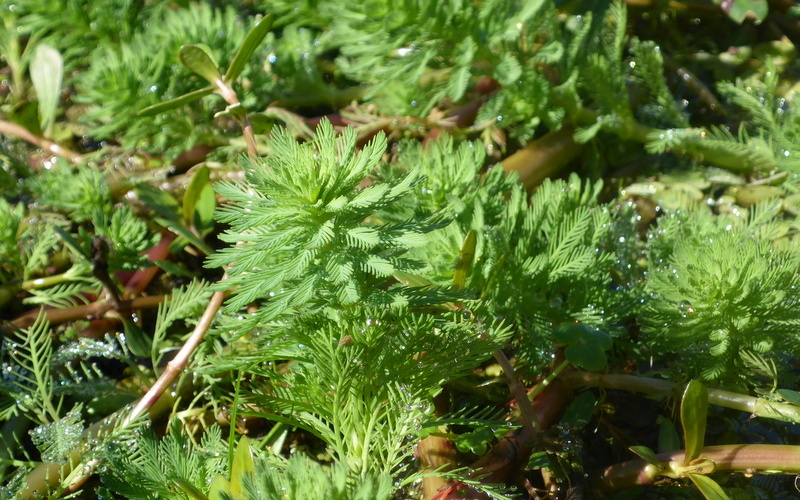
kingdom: Plantae
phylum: Tracheophyta
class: Magnoliopsida
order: Saxifragales
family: Haloragaceae
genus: Myriophyllum
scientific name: Myriophyllum aquaticum
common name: Parrot's feather
